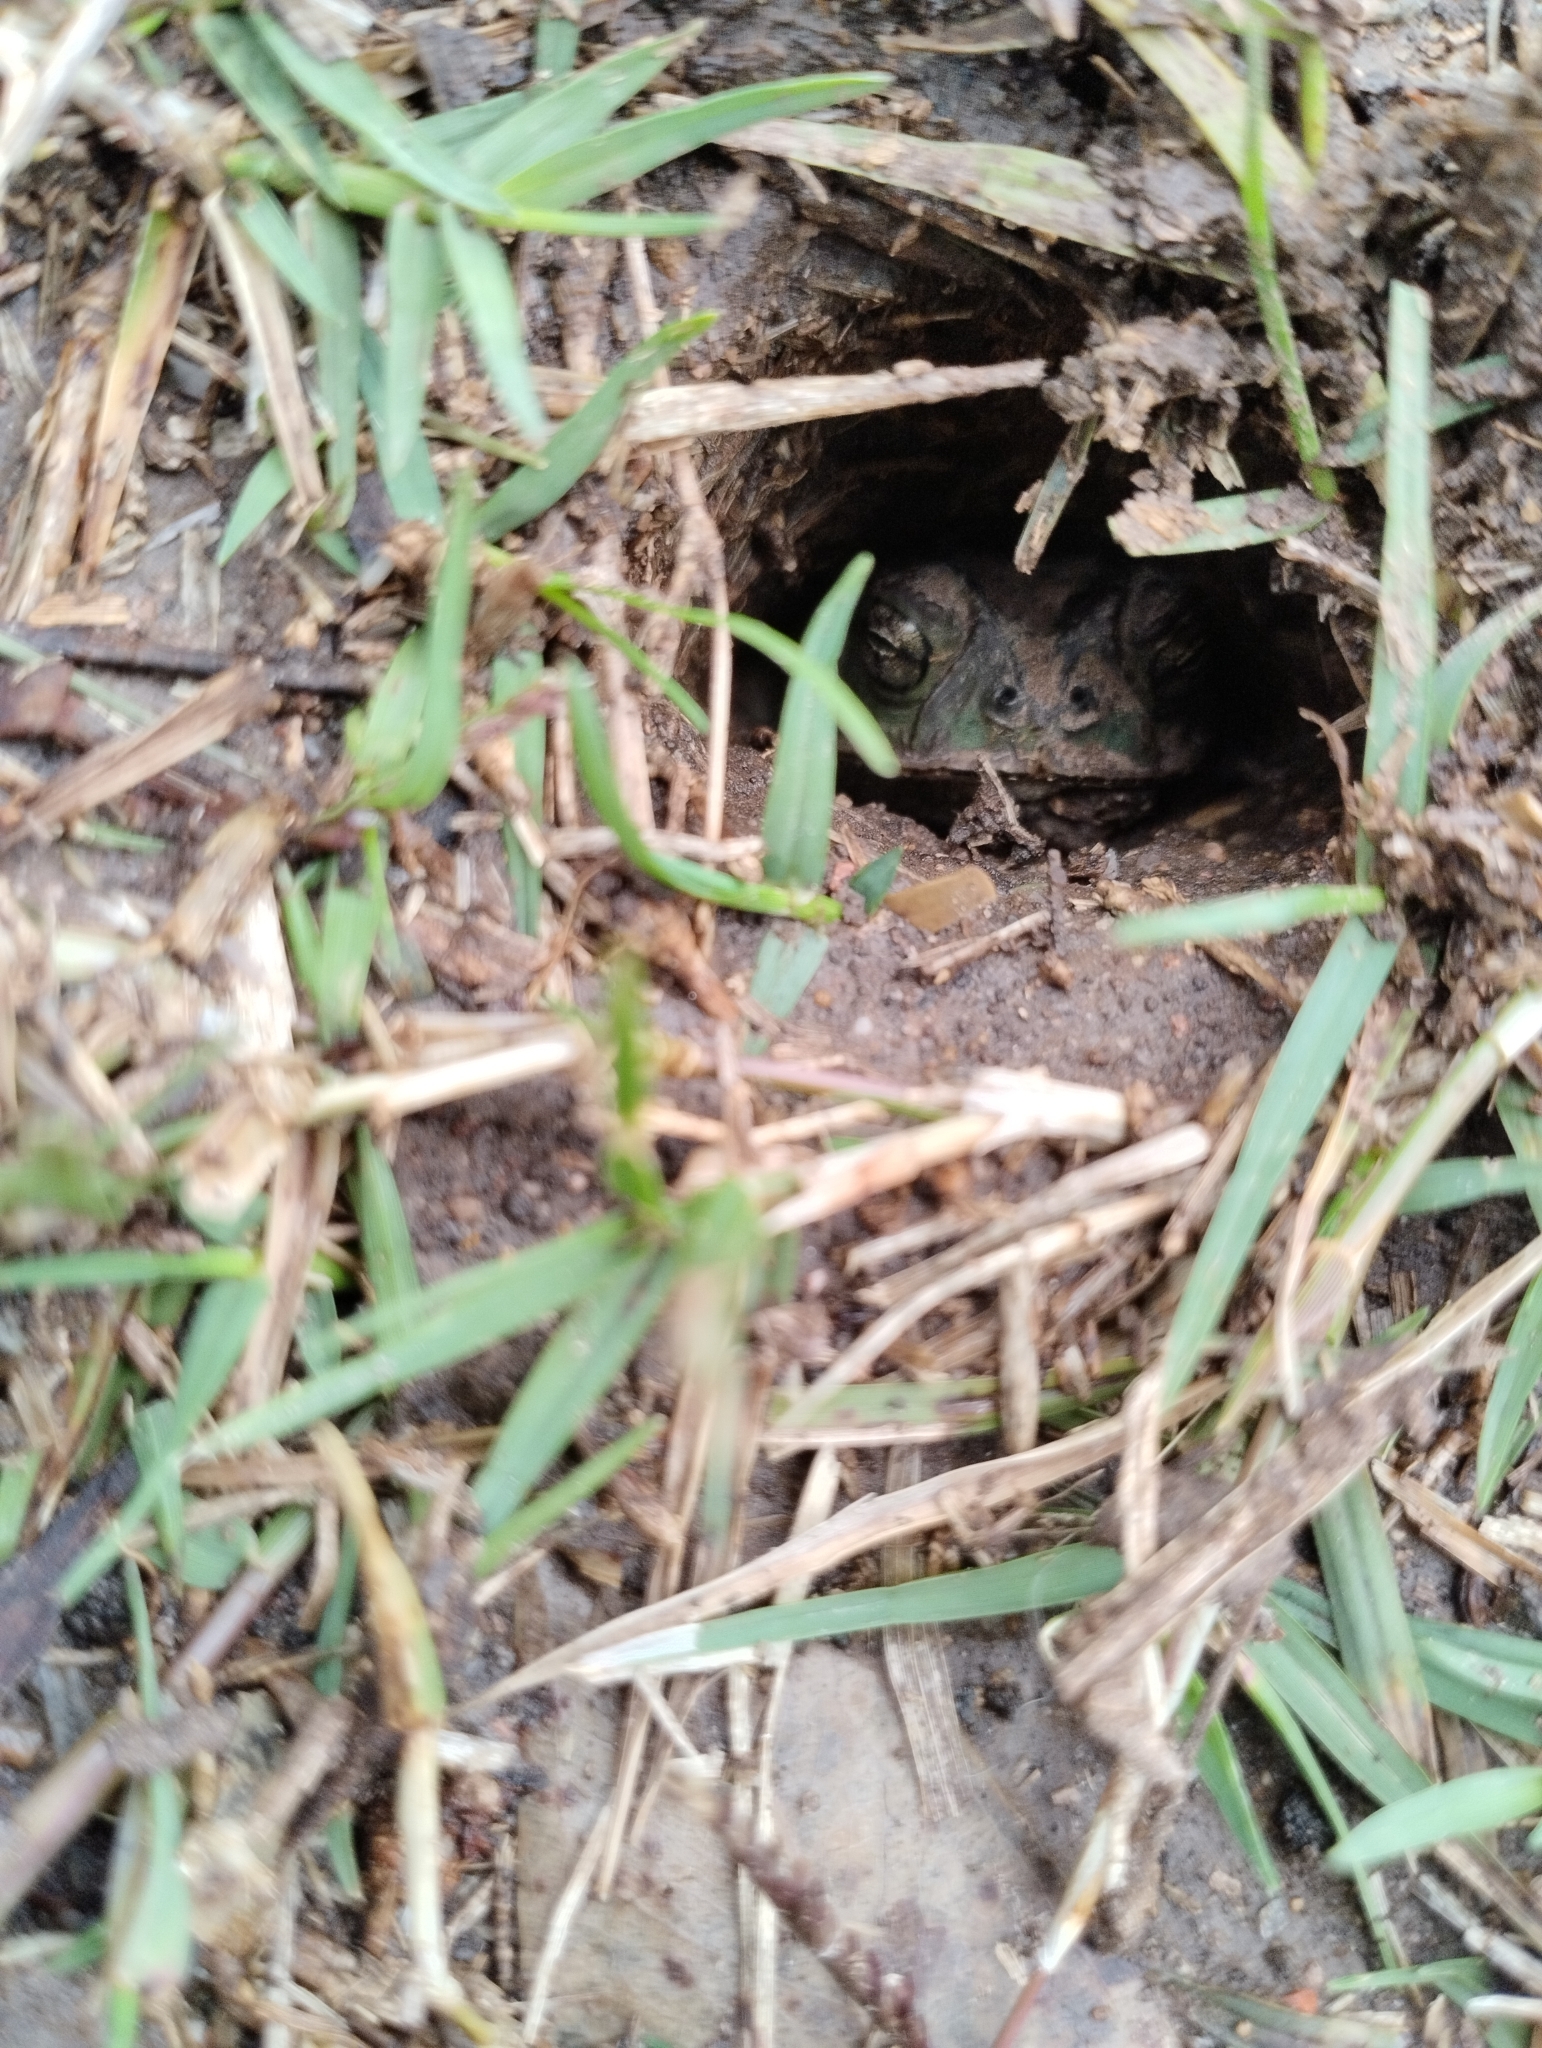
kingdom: Animalia
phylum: Chordata
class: Amphibia
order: Anura
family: Bufonidae
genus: Rhinella
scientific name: Rhinella dorbignyi
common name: D´orbigny’s toad
